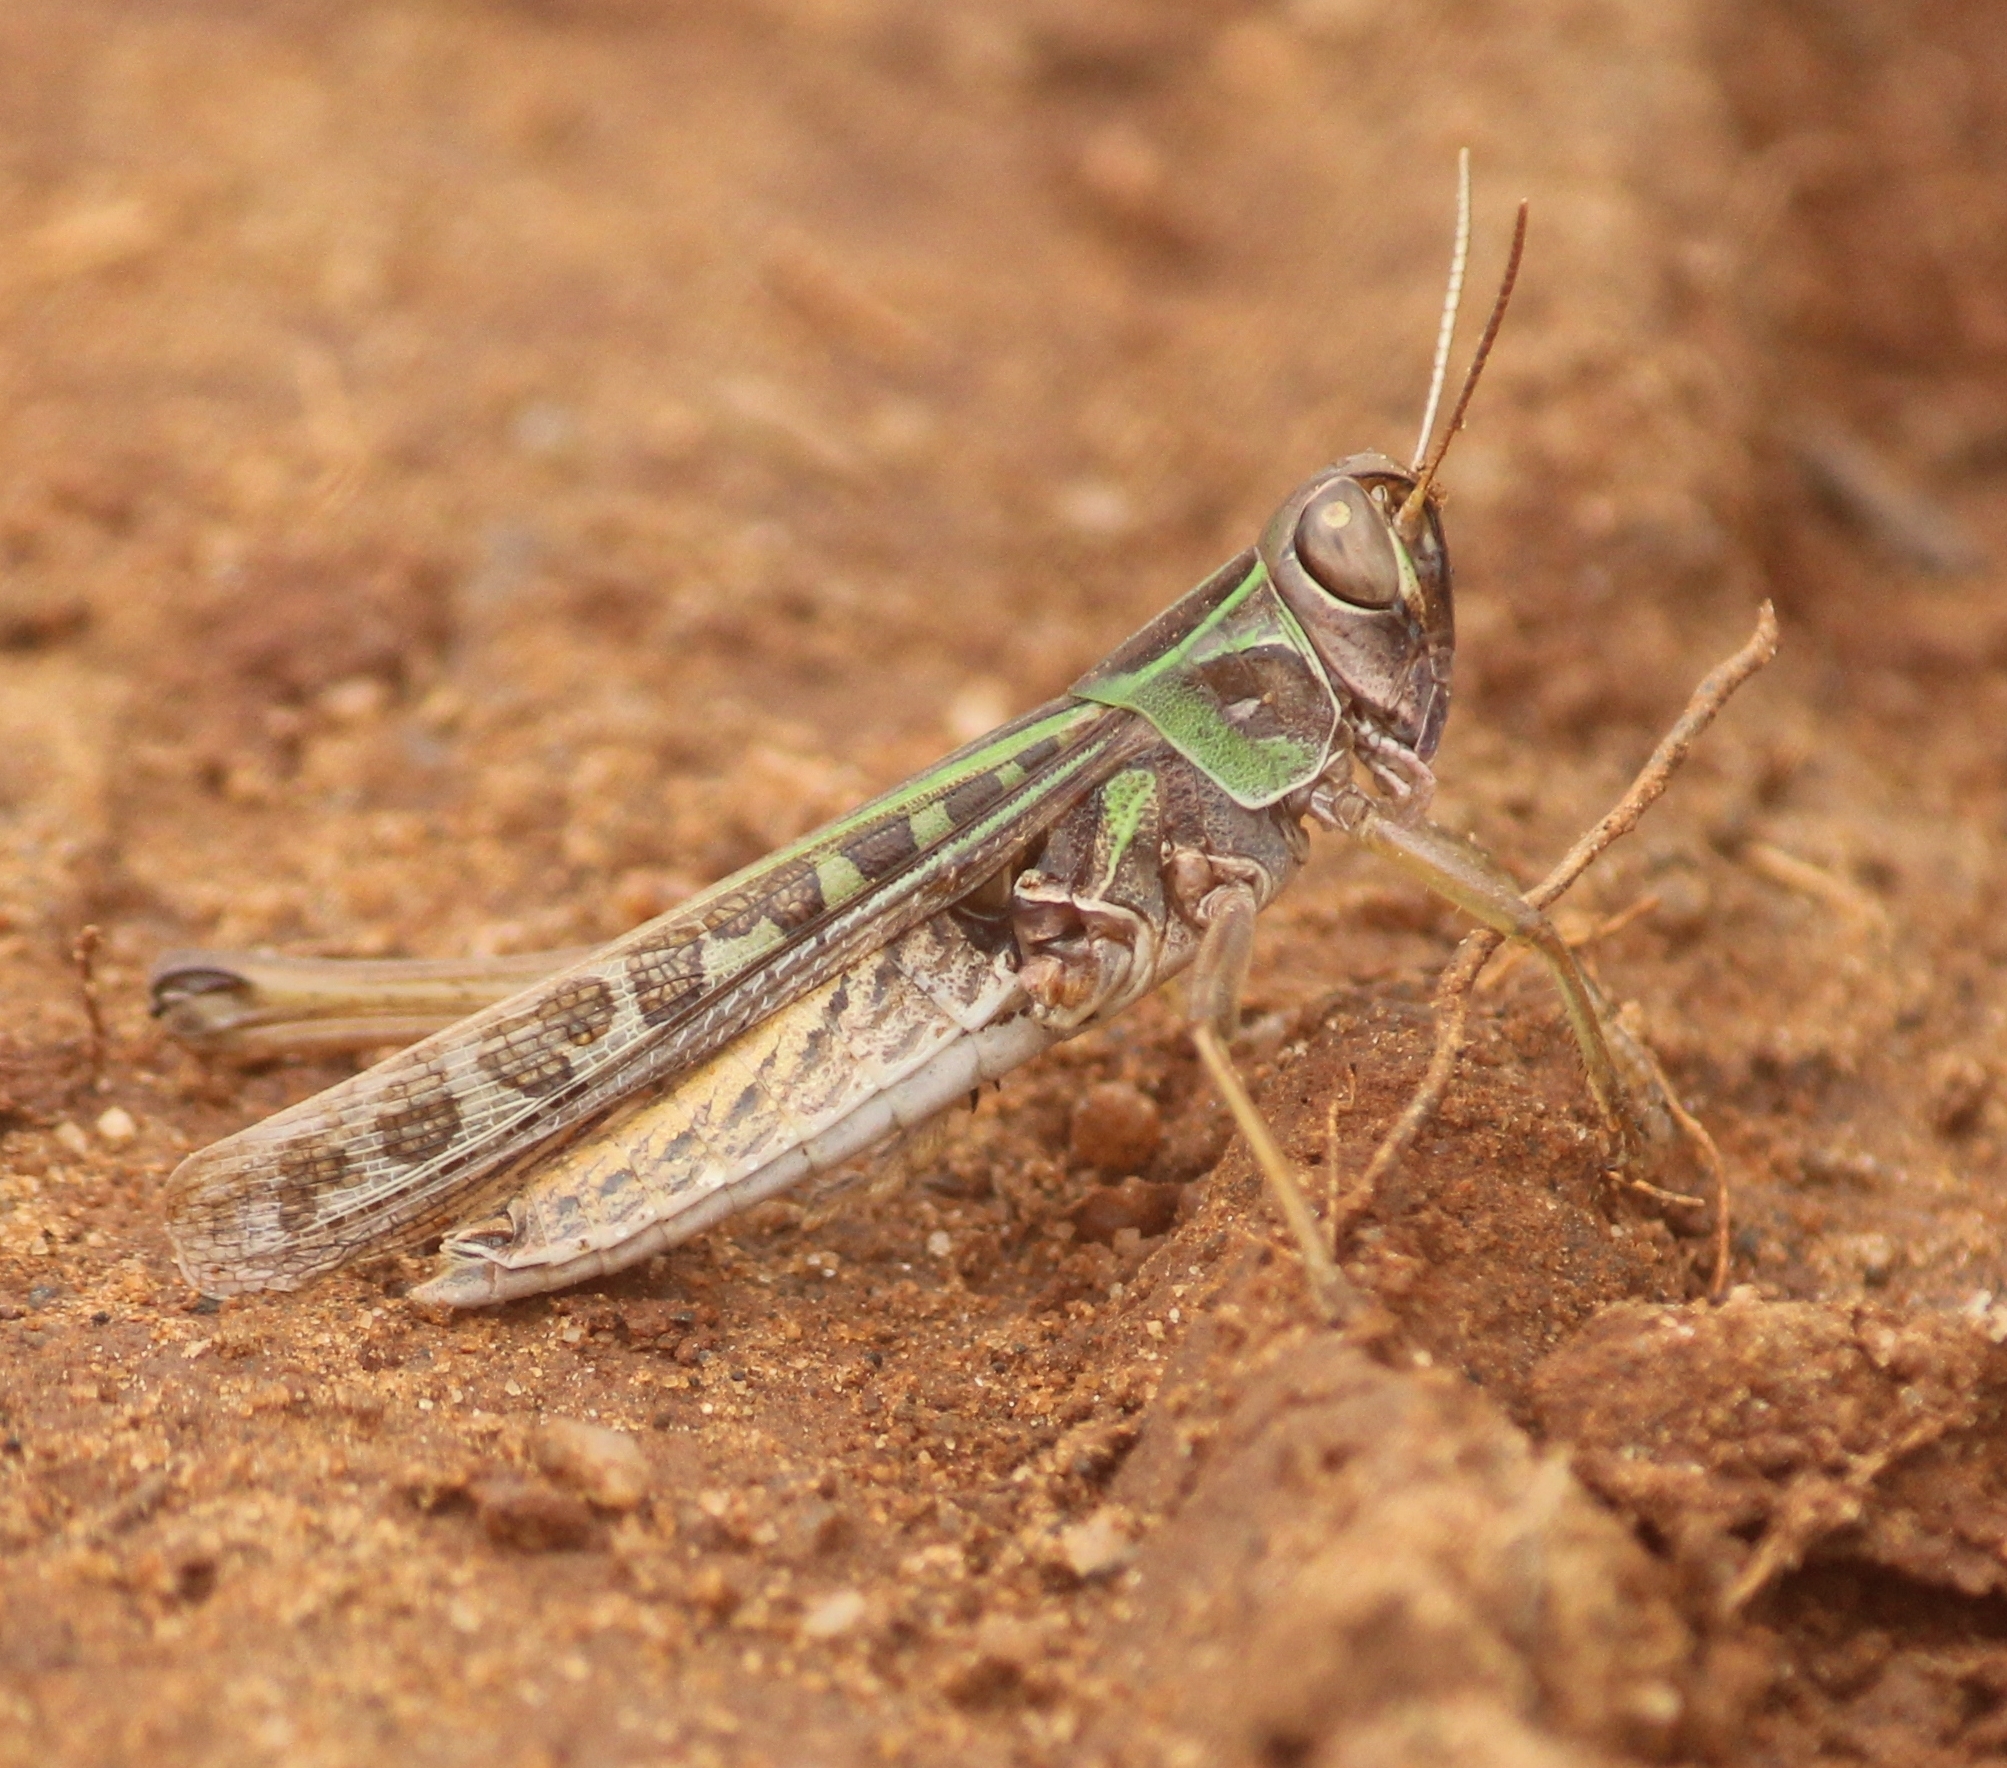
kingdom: Animalia
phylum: Arthropoda
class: Insecta
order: Orthoptera
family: Acrididae
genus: Tylotropidius
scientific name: Tylotropidius varicornis
